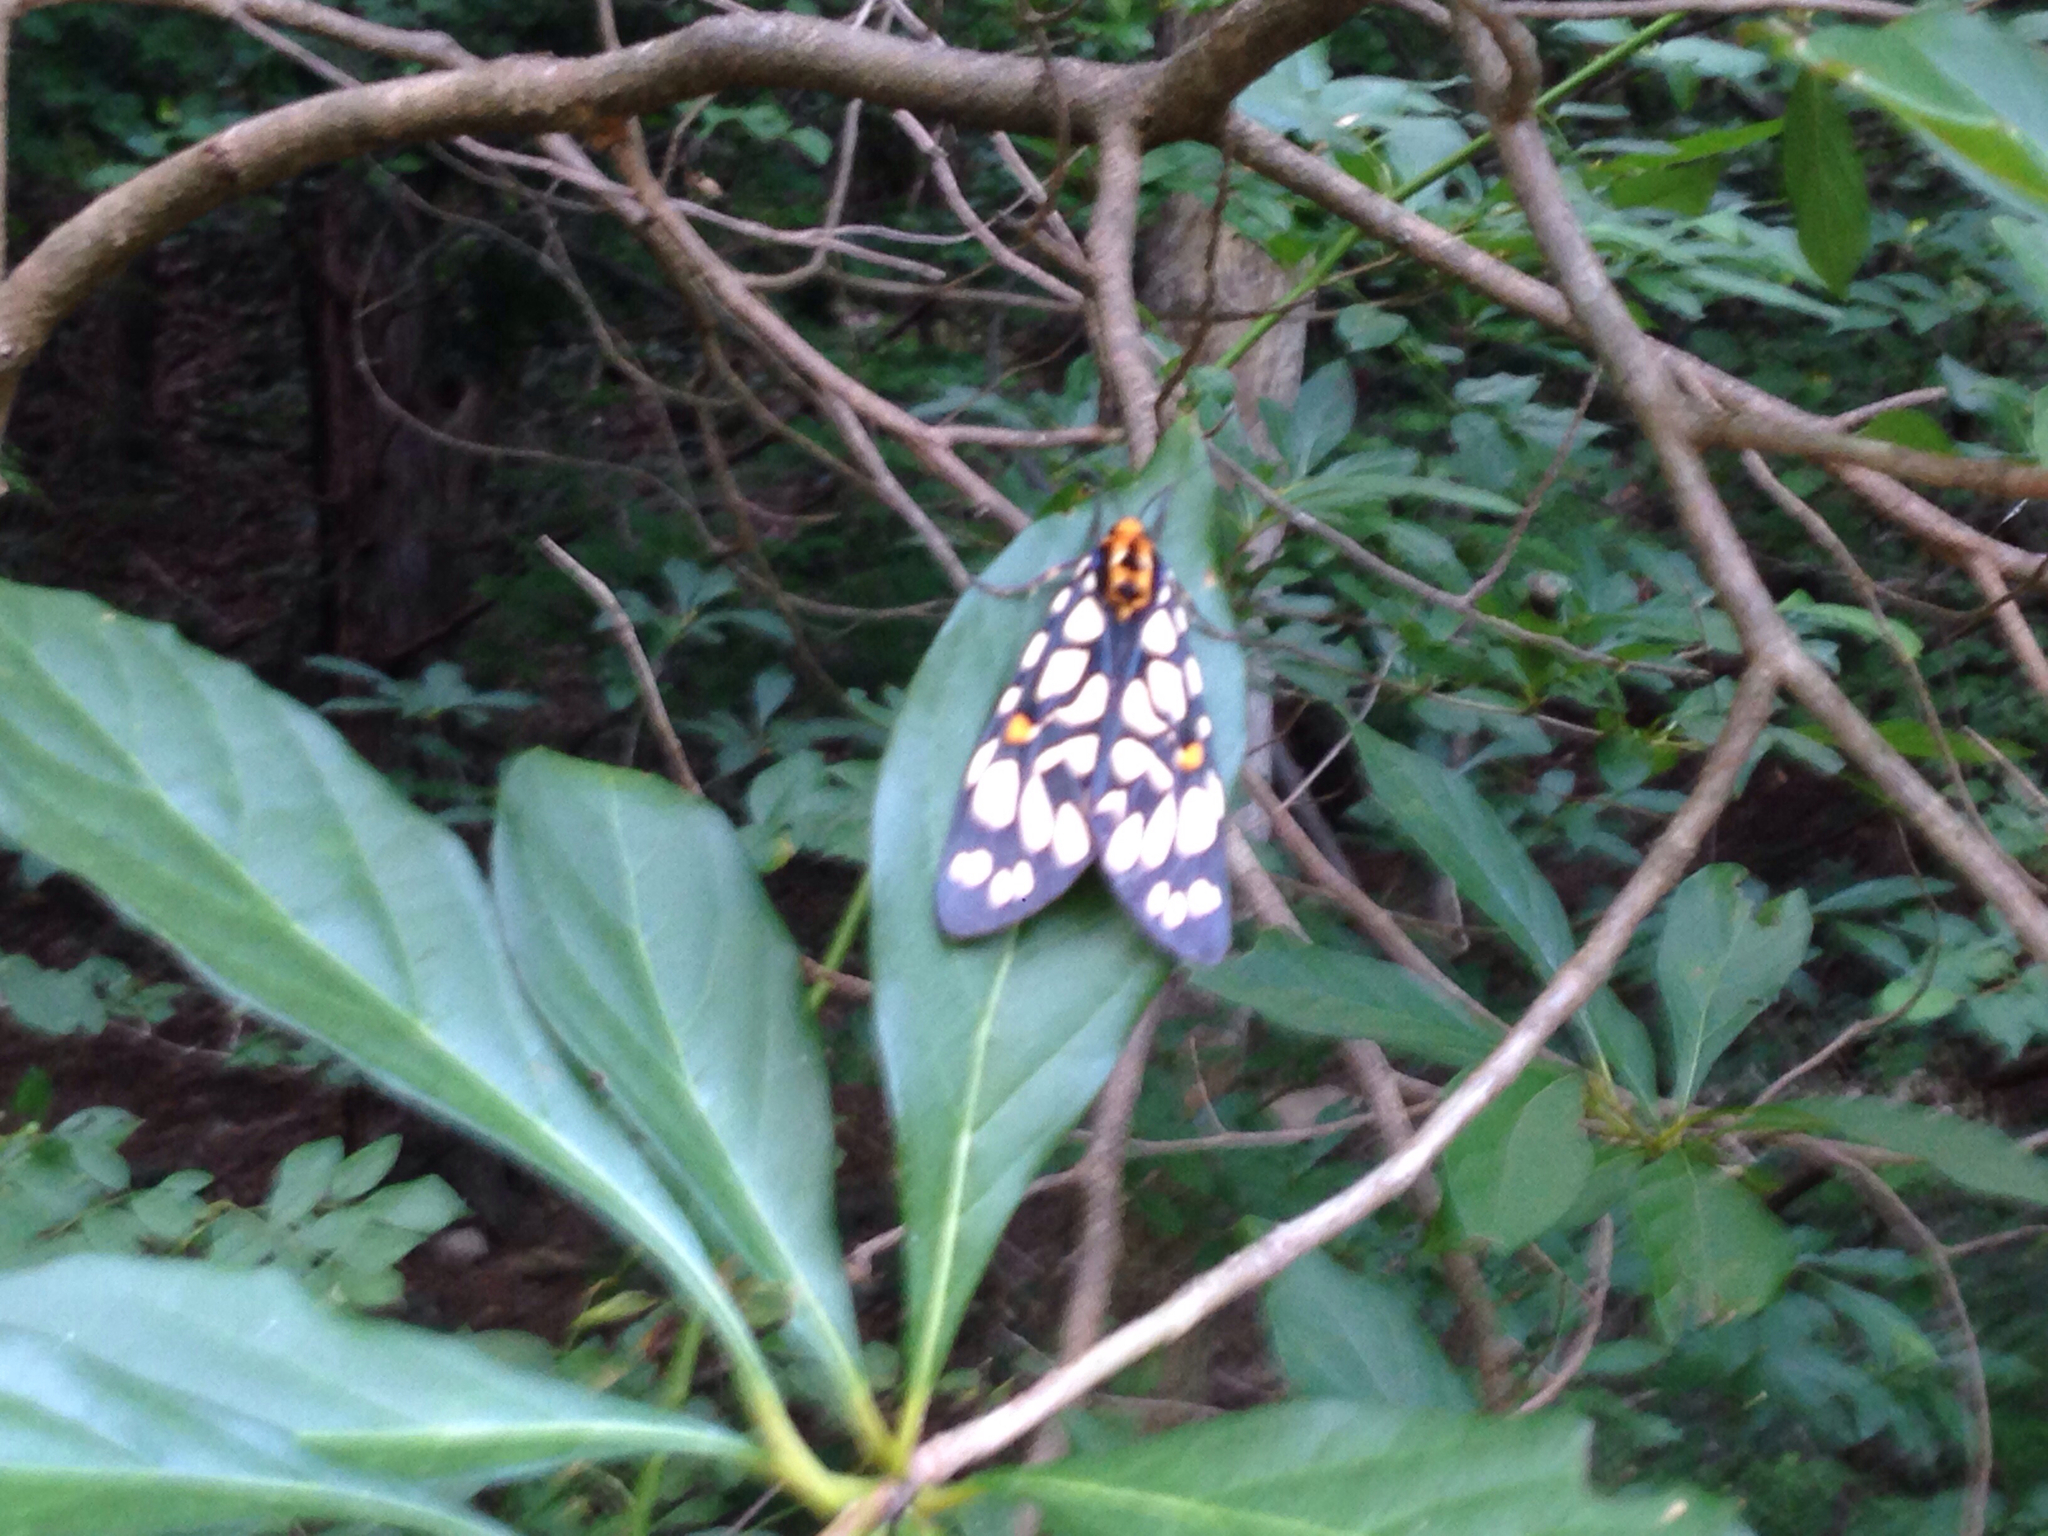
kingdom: Animalia
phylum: Arthropoda
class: Insecta
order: Lepidoptera
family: Erebidae
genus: Aglaomorpha
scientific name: Aglaomorpha histrio
